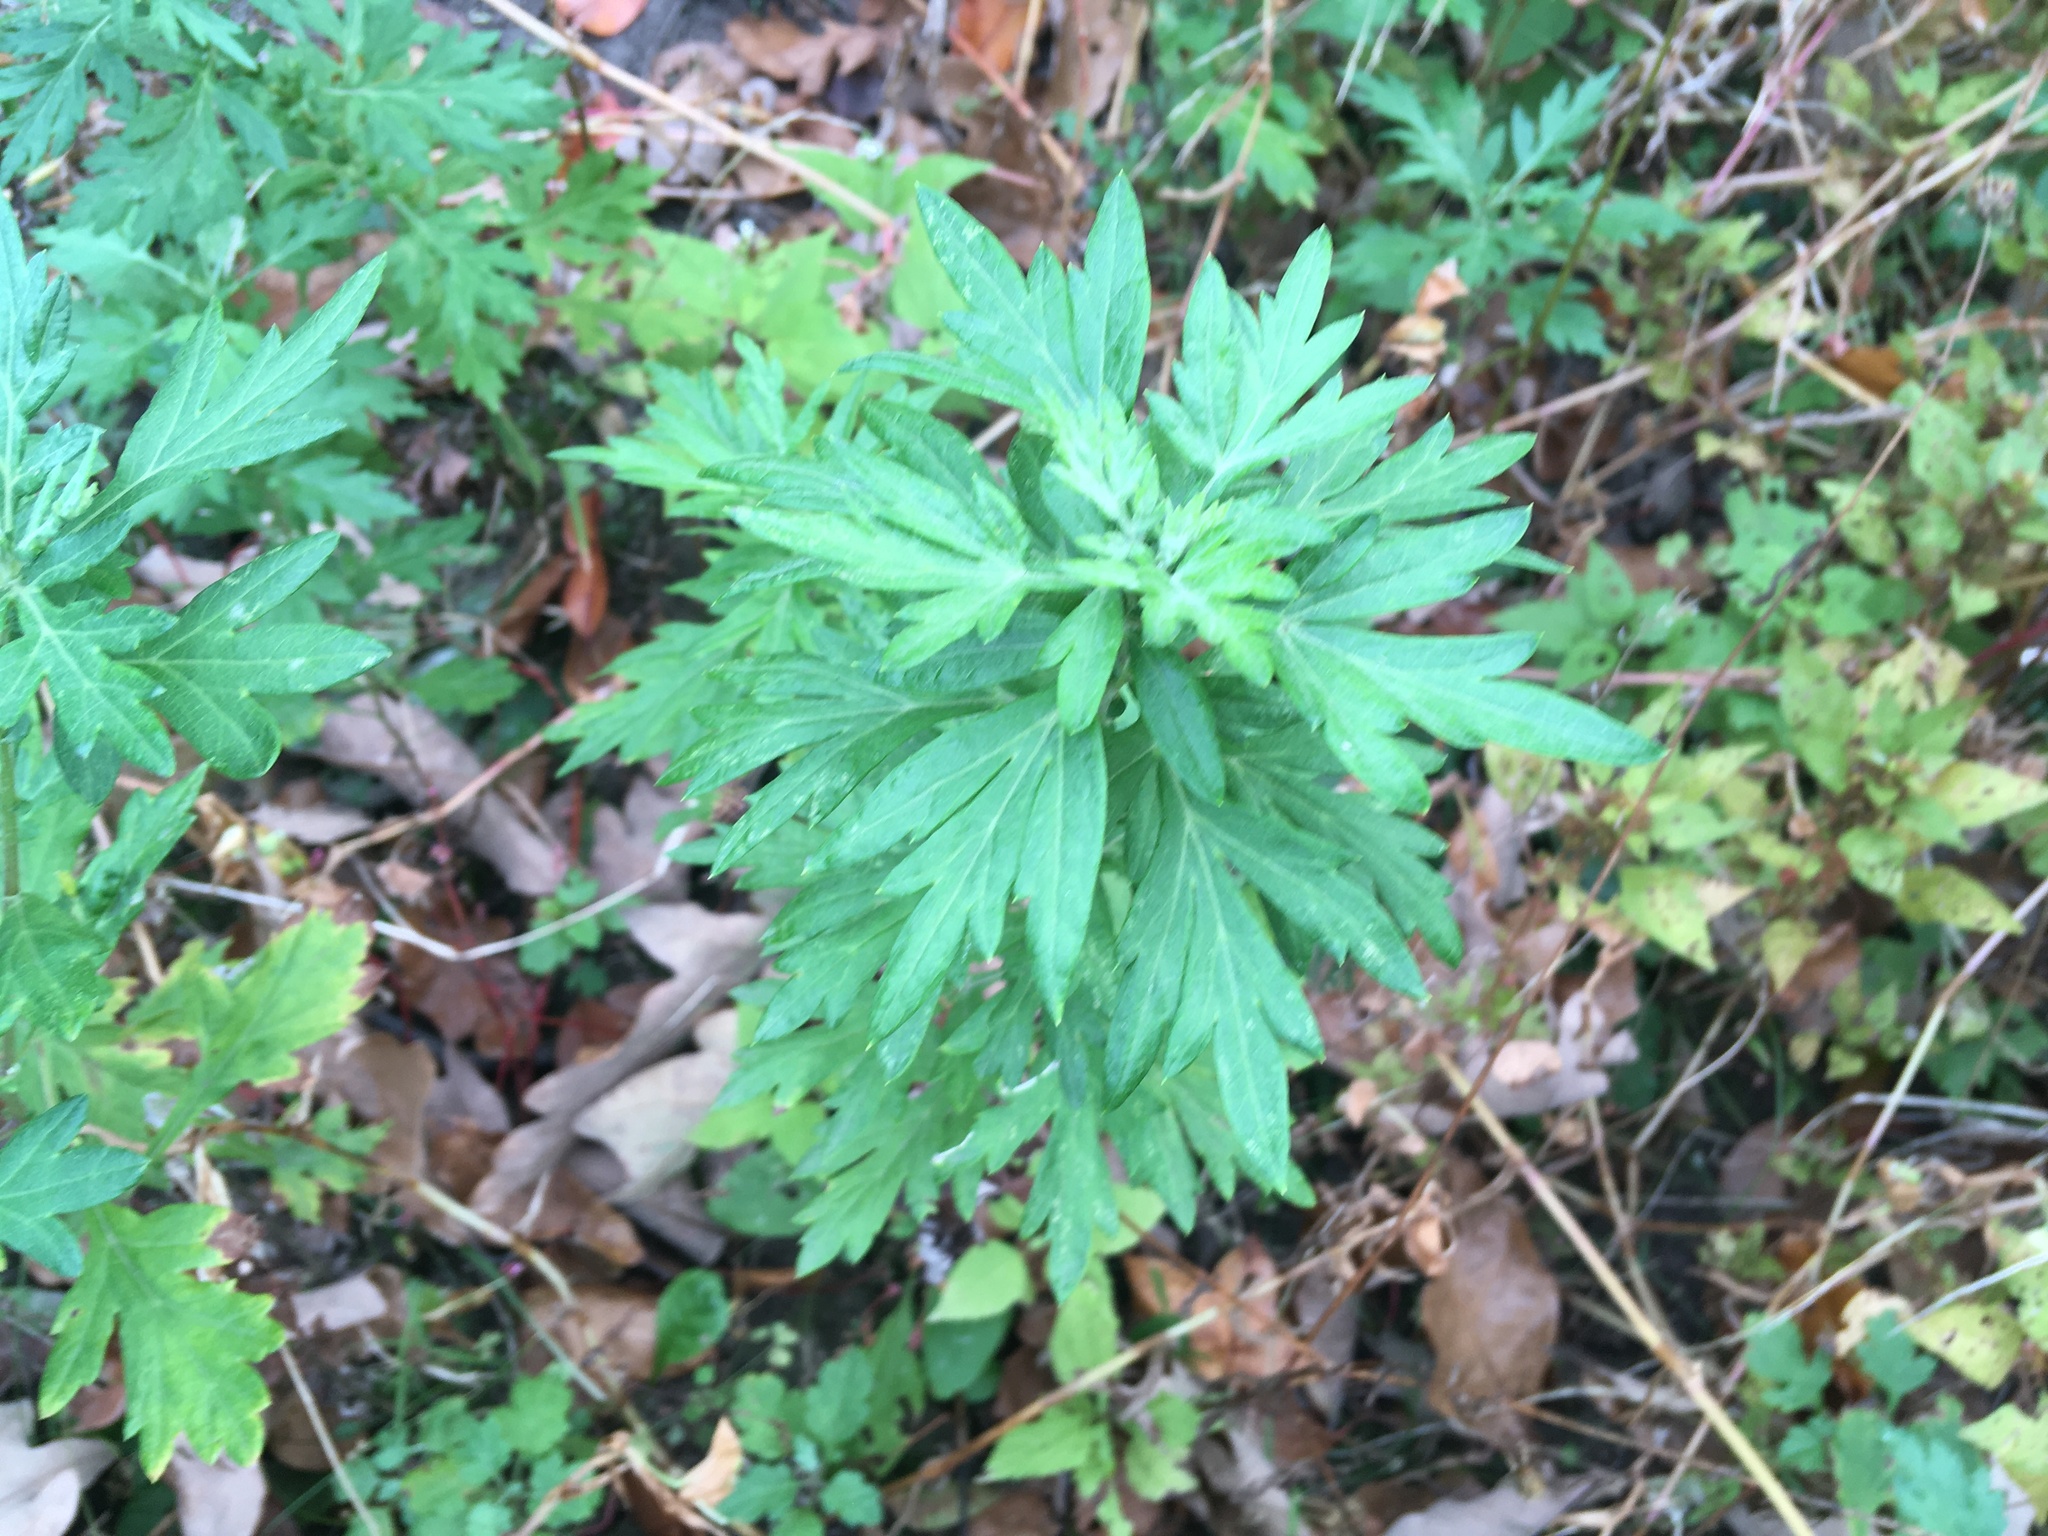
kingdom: Plantae
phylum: Tracheophyta
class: Magnoliopsida
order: Asterales
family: Asteraceae
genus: Artemisia
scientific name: Artemisia vulgaris
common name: Mugwort
